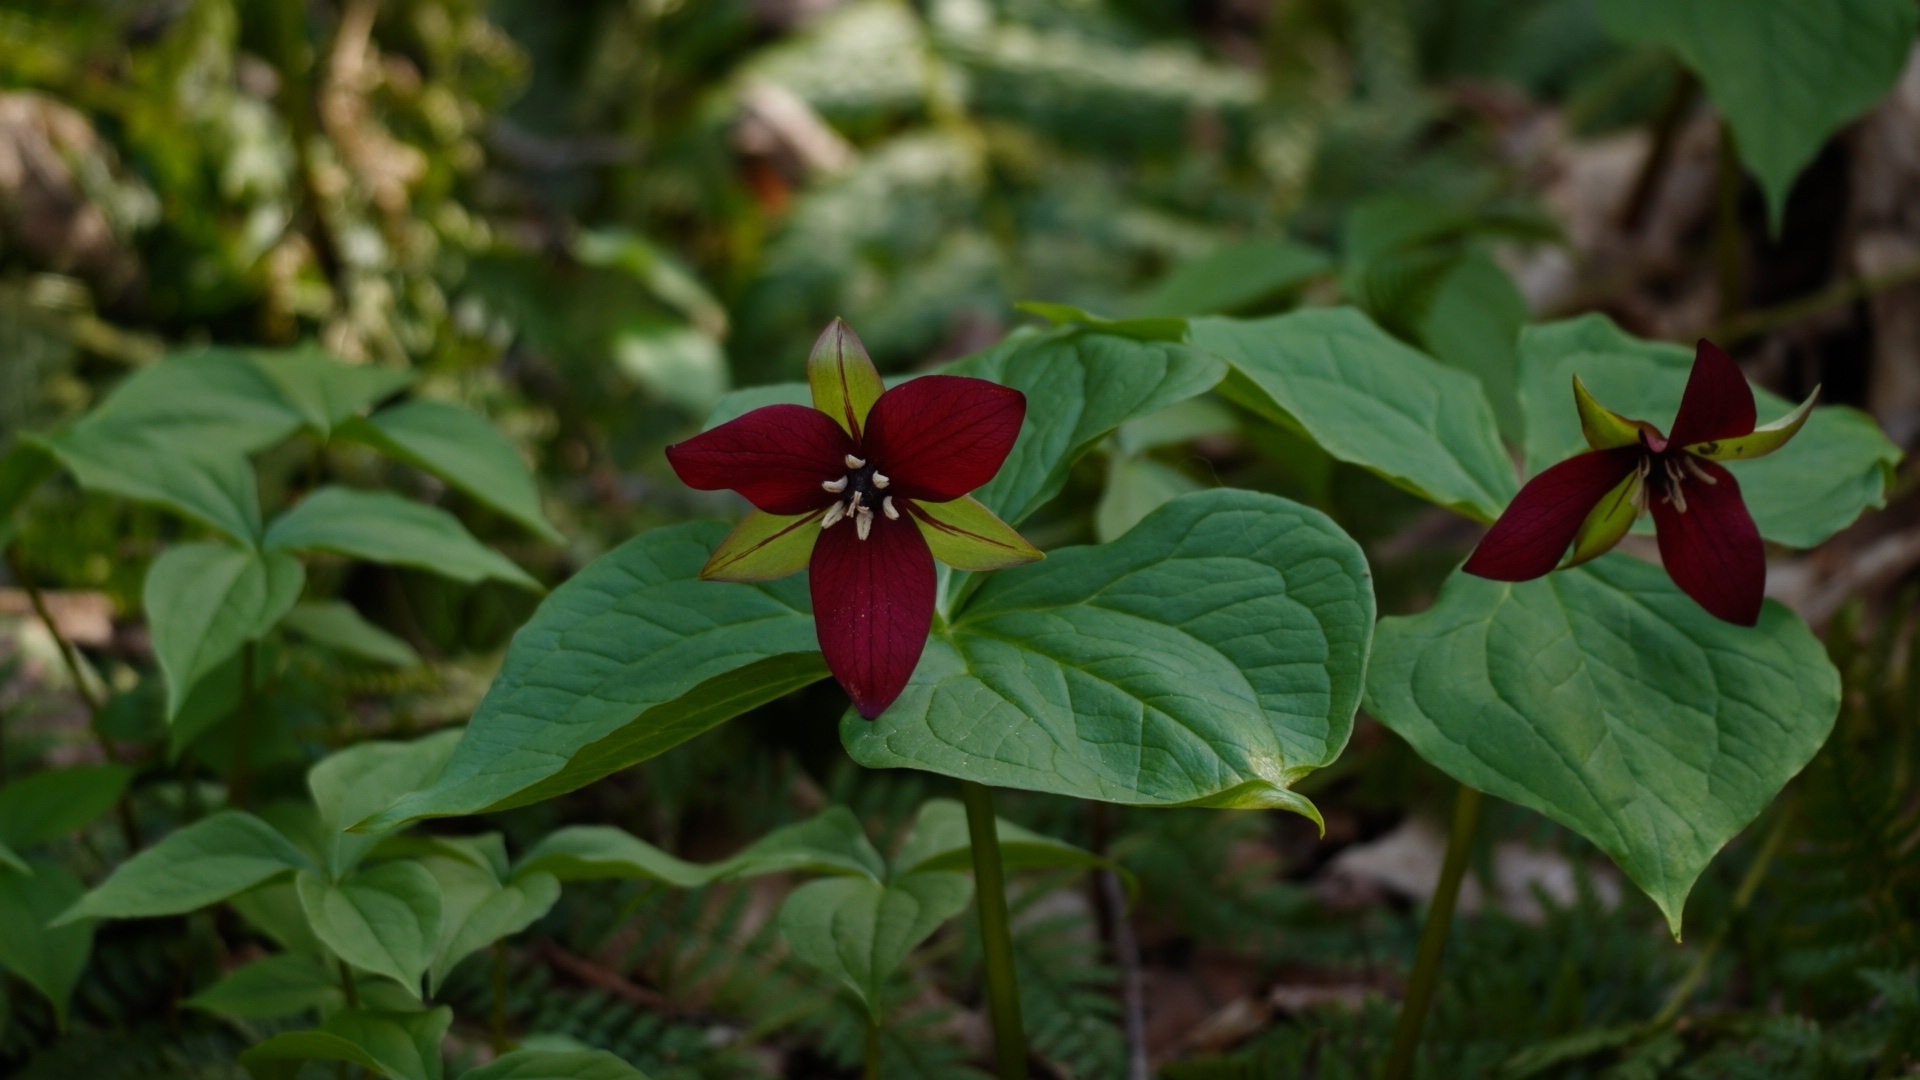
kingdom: Plantae
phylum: Tracheophyta
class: Liliopsida
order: Liliales
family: Melanthiaceae
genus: Trillium
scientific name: Trillium erectum
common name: Purple trillium
